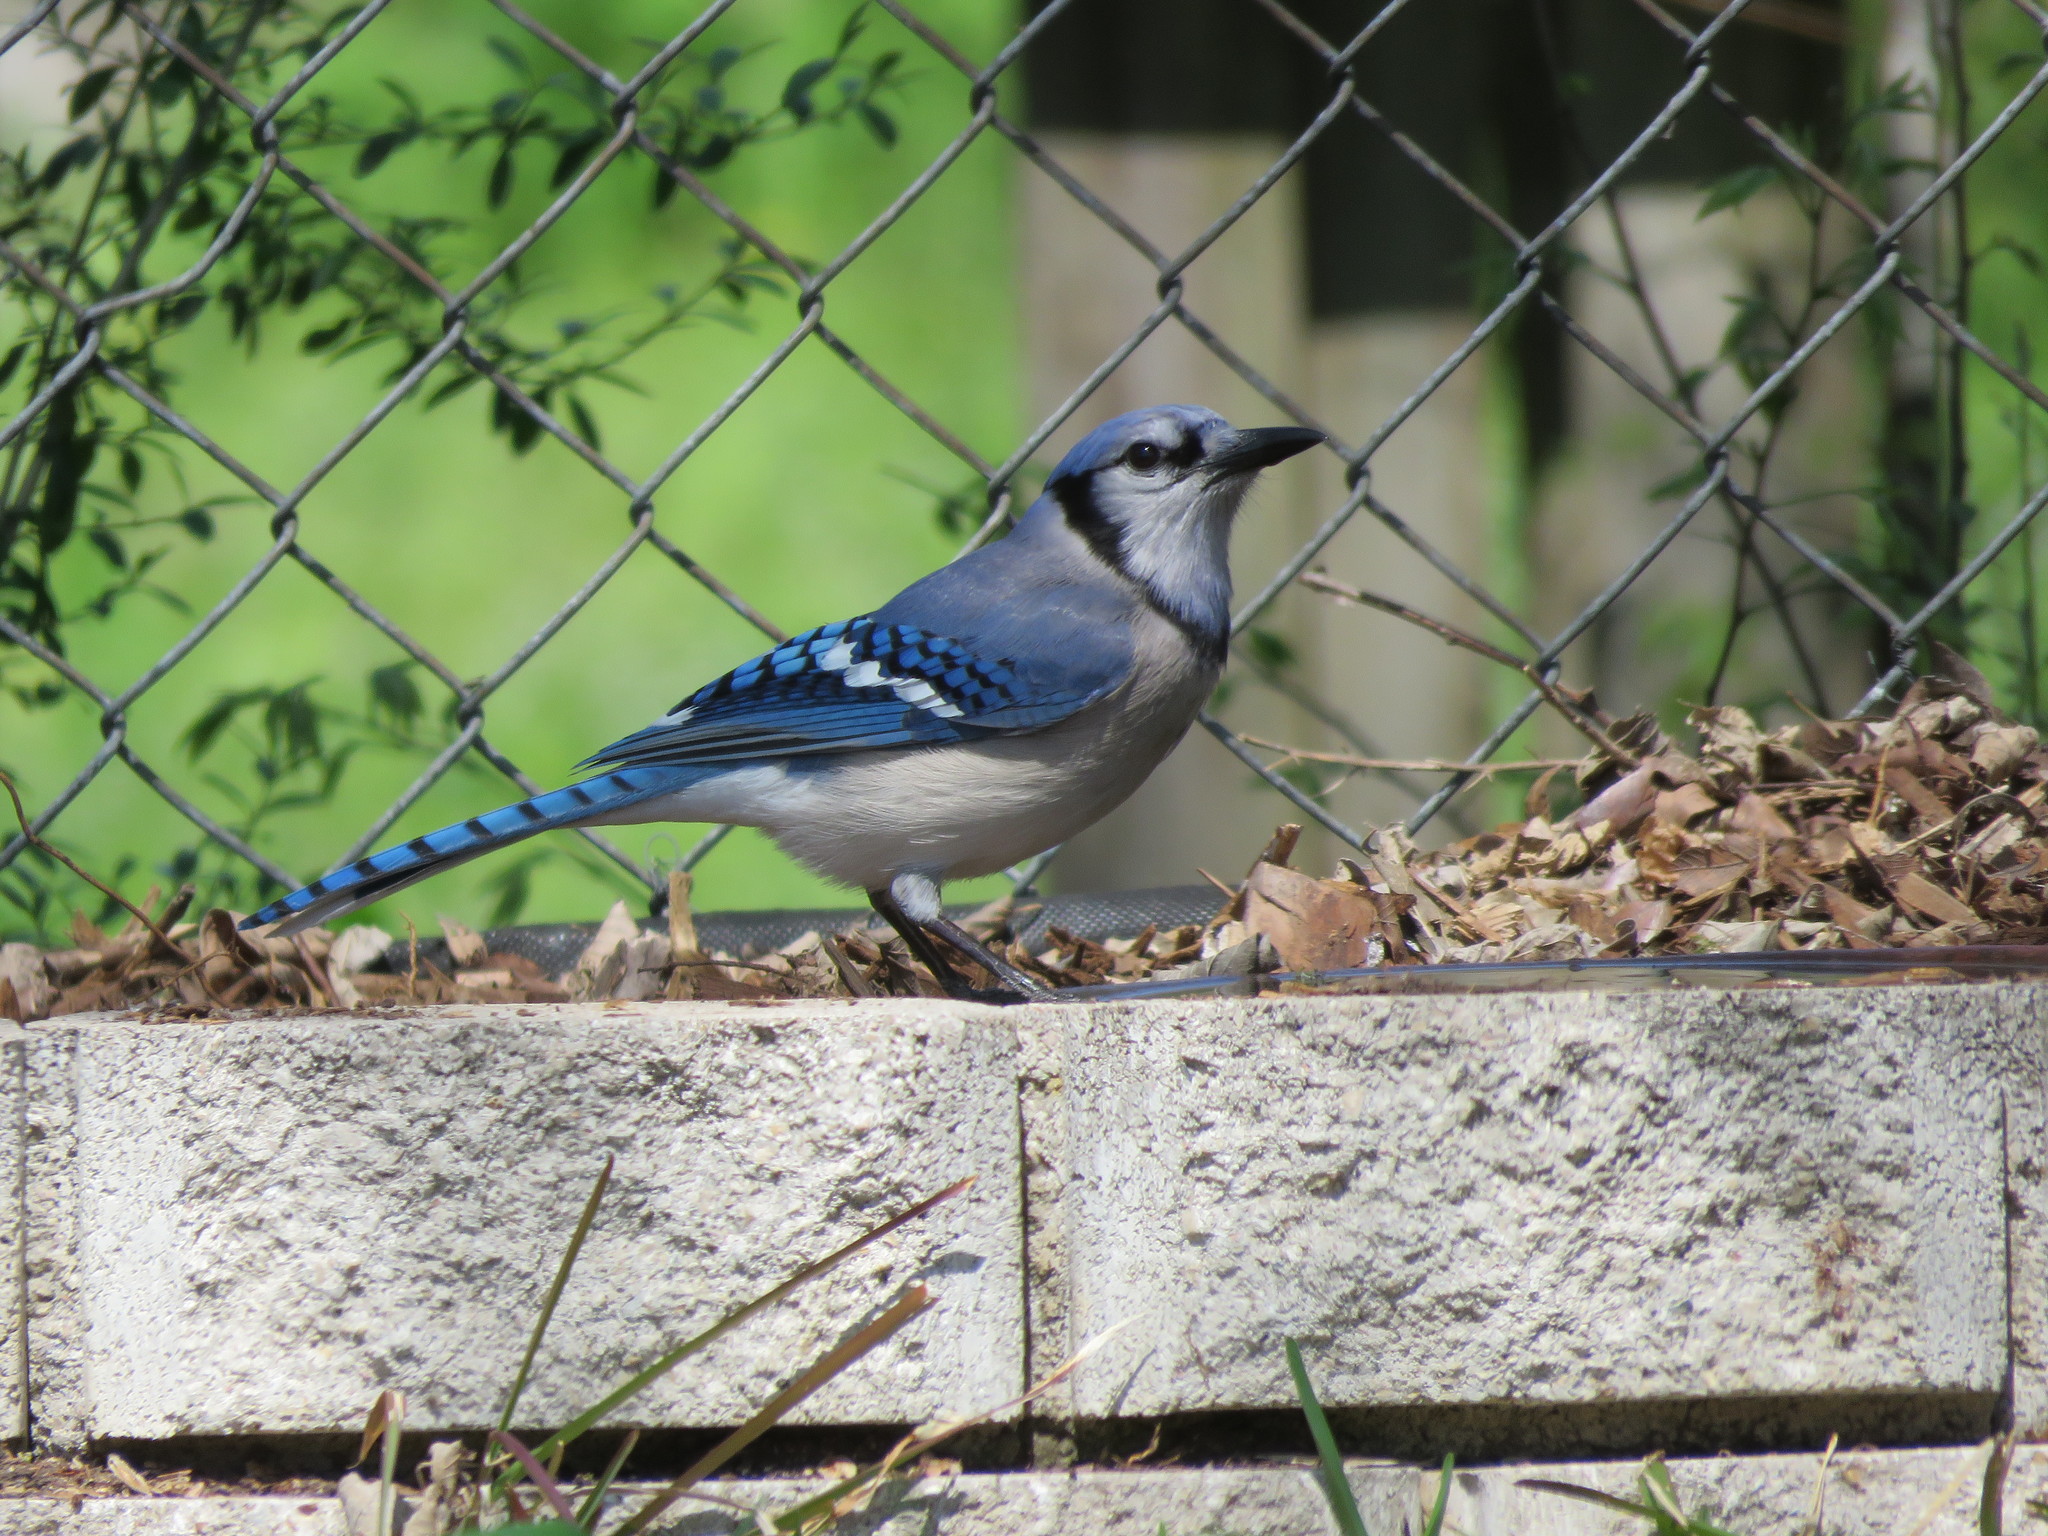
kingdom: Animalia
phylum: Chordata
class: Aves
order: Passeriformes
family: Corvidae
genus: Cyanocitta
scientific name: Cyanocitta cristata
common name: Blue jay
